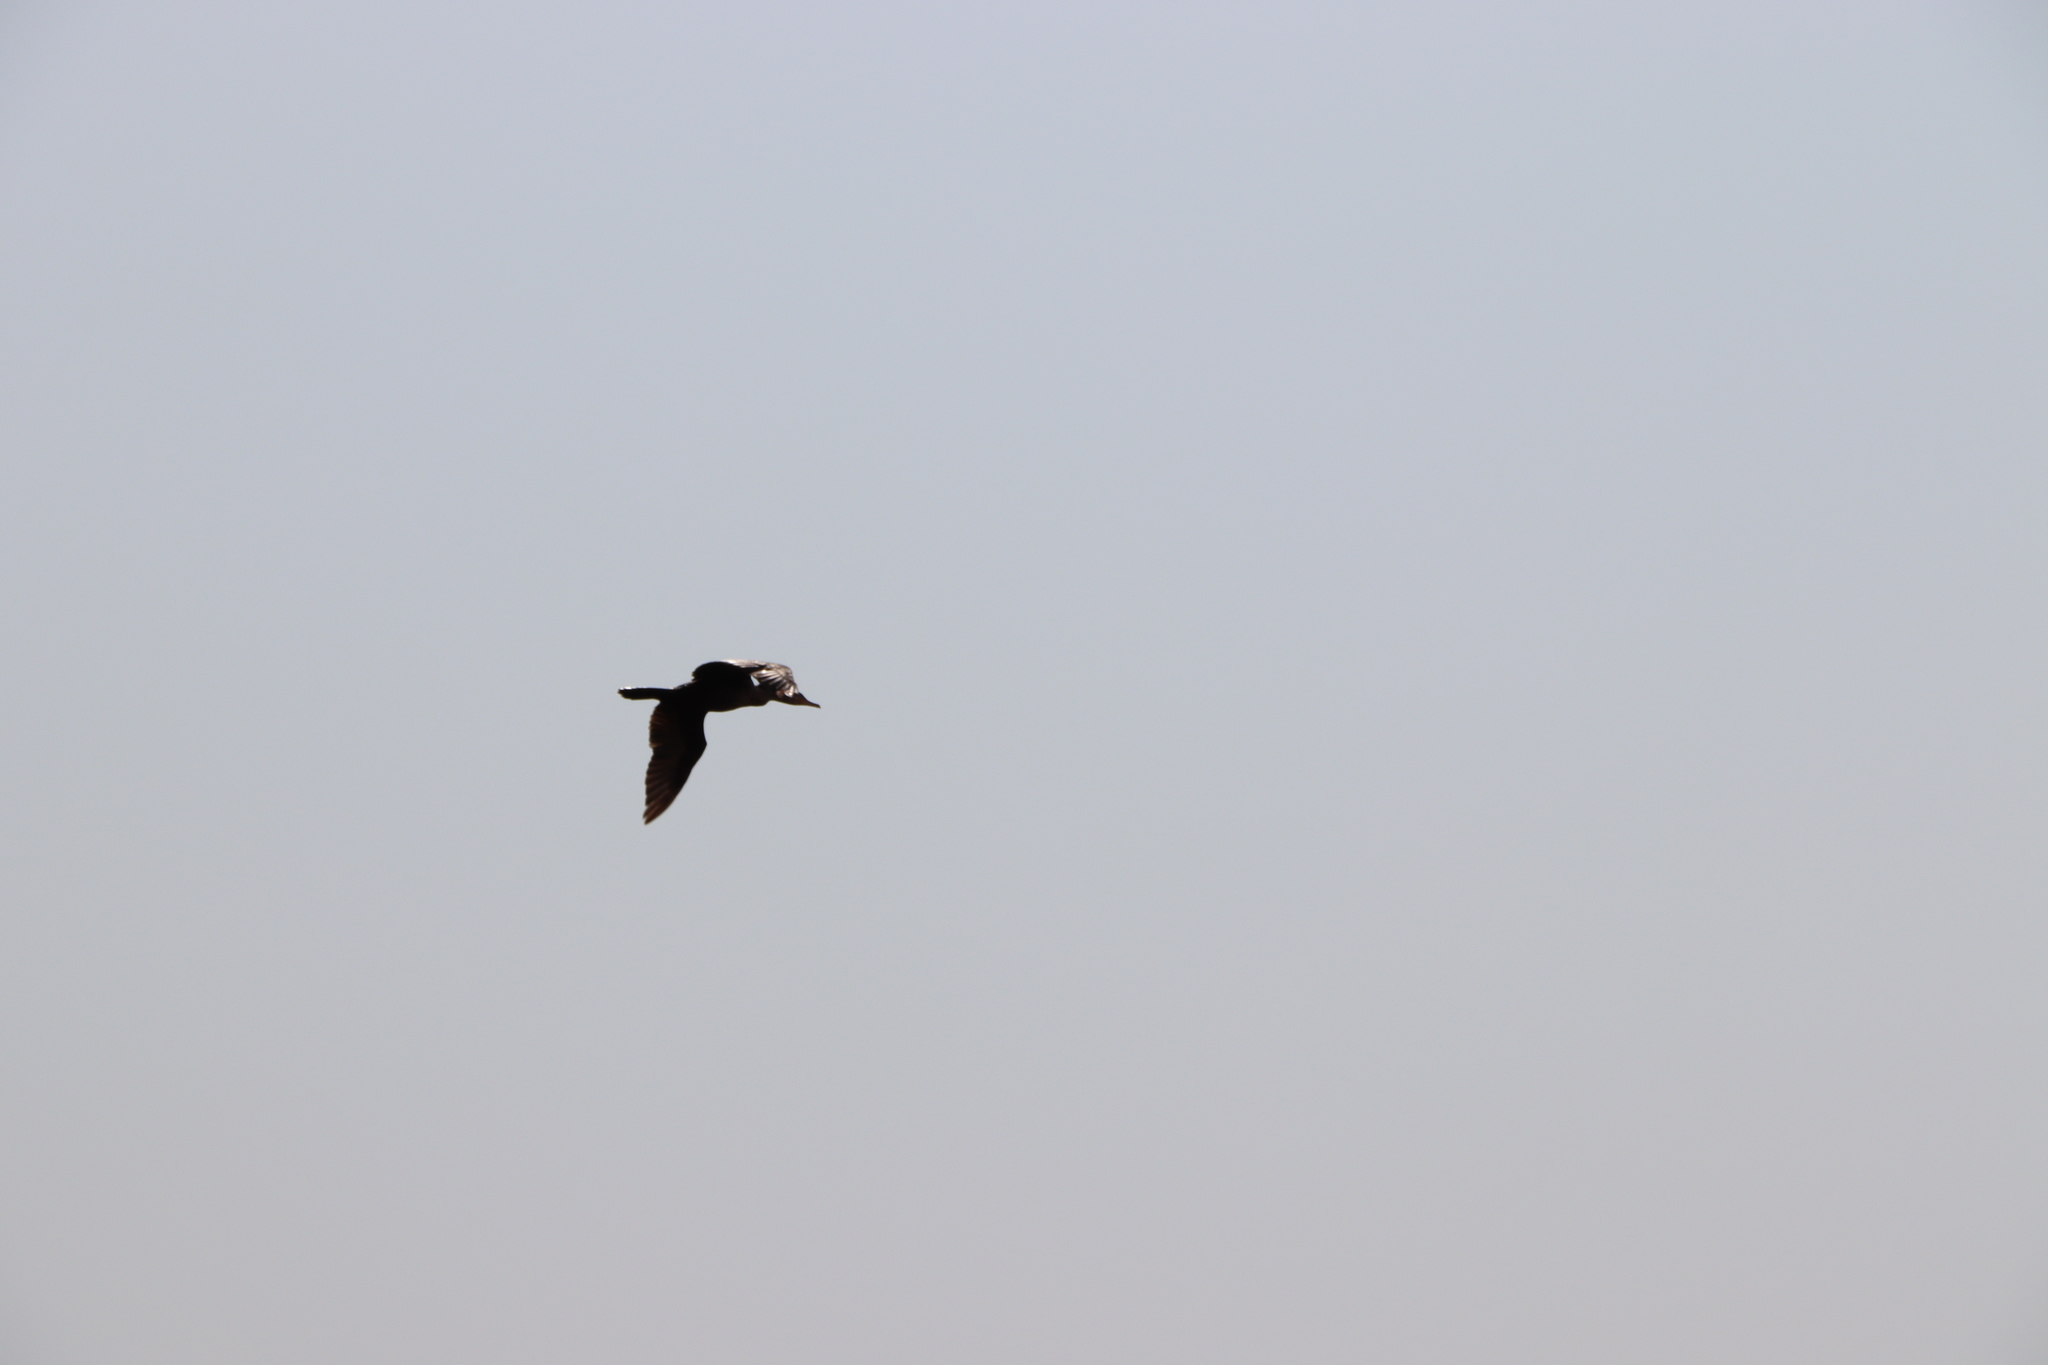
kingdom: Animalia
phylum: Chordata
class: Aves
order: Suliformes
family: Phalacrocoracidae
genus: Phalacrocorax
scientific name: Phalacrocorax brasilianus
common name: Neotropic cormorant
